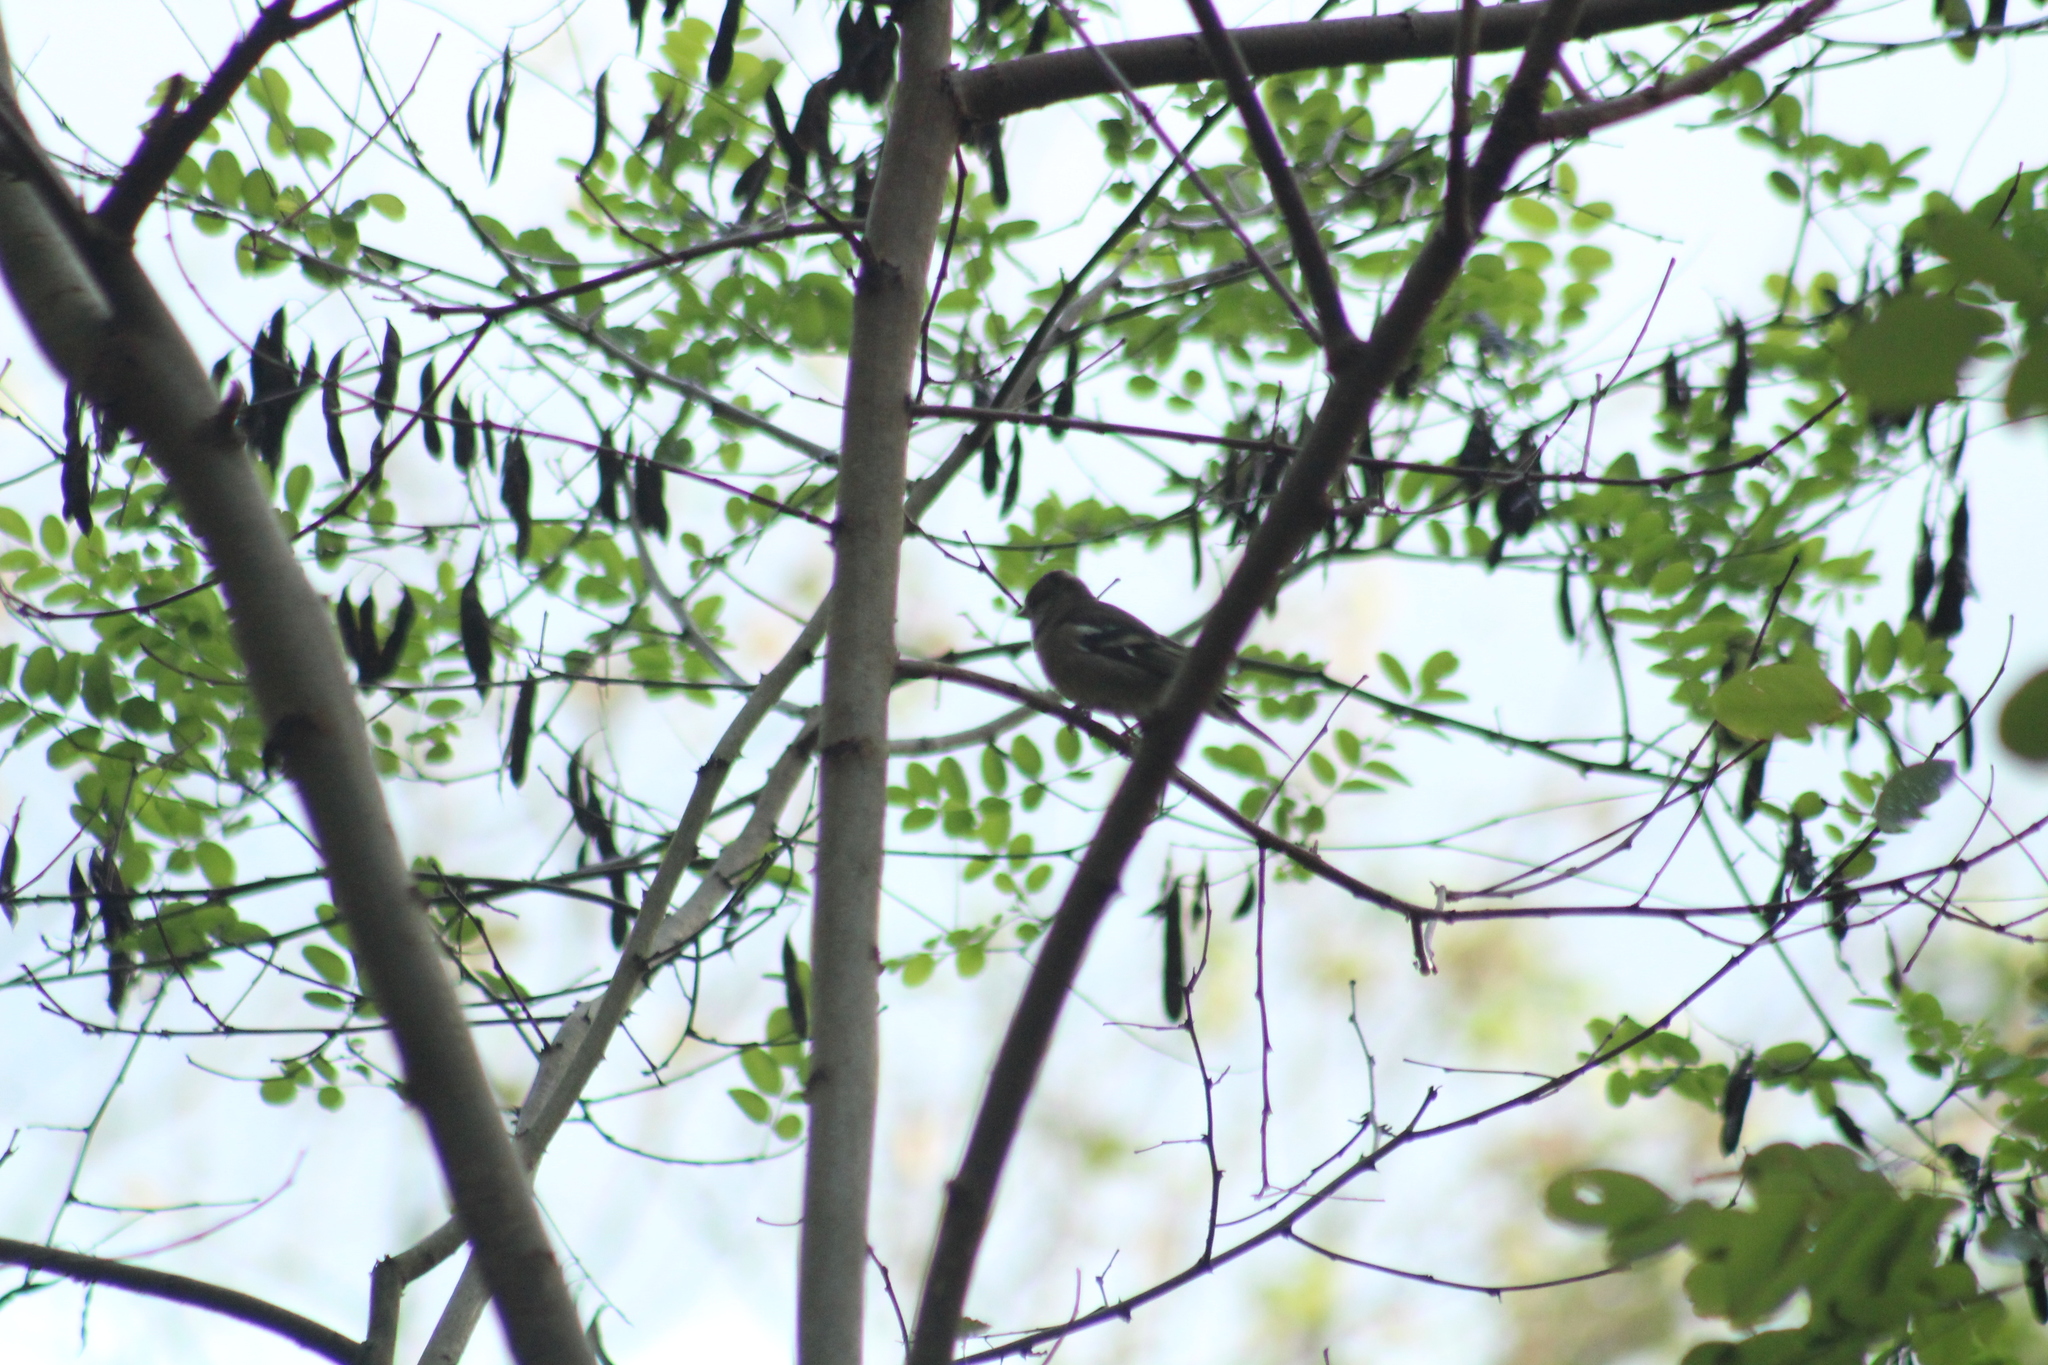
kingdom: Animalia
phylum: Chordata
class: Aves
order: Passeriformes
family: Fringillidae
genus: Fringilla
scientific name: Fringilla coelebs
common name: Common chaffinch
